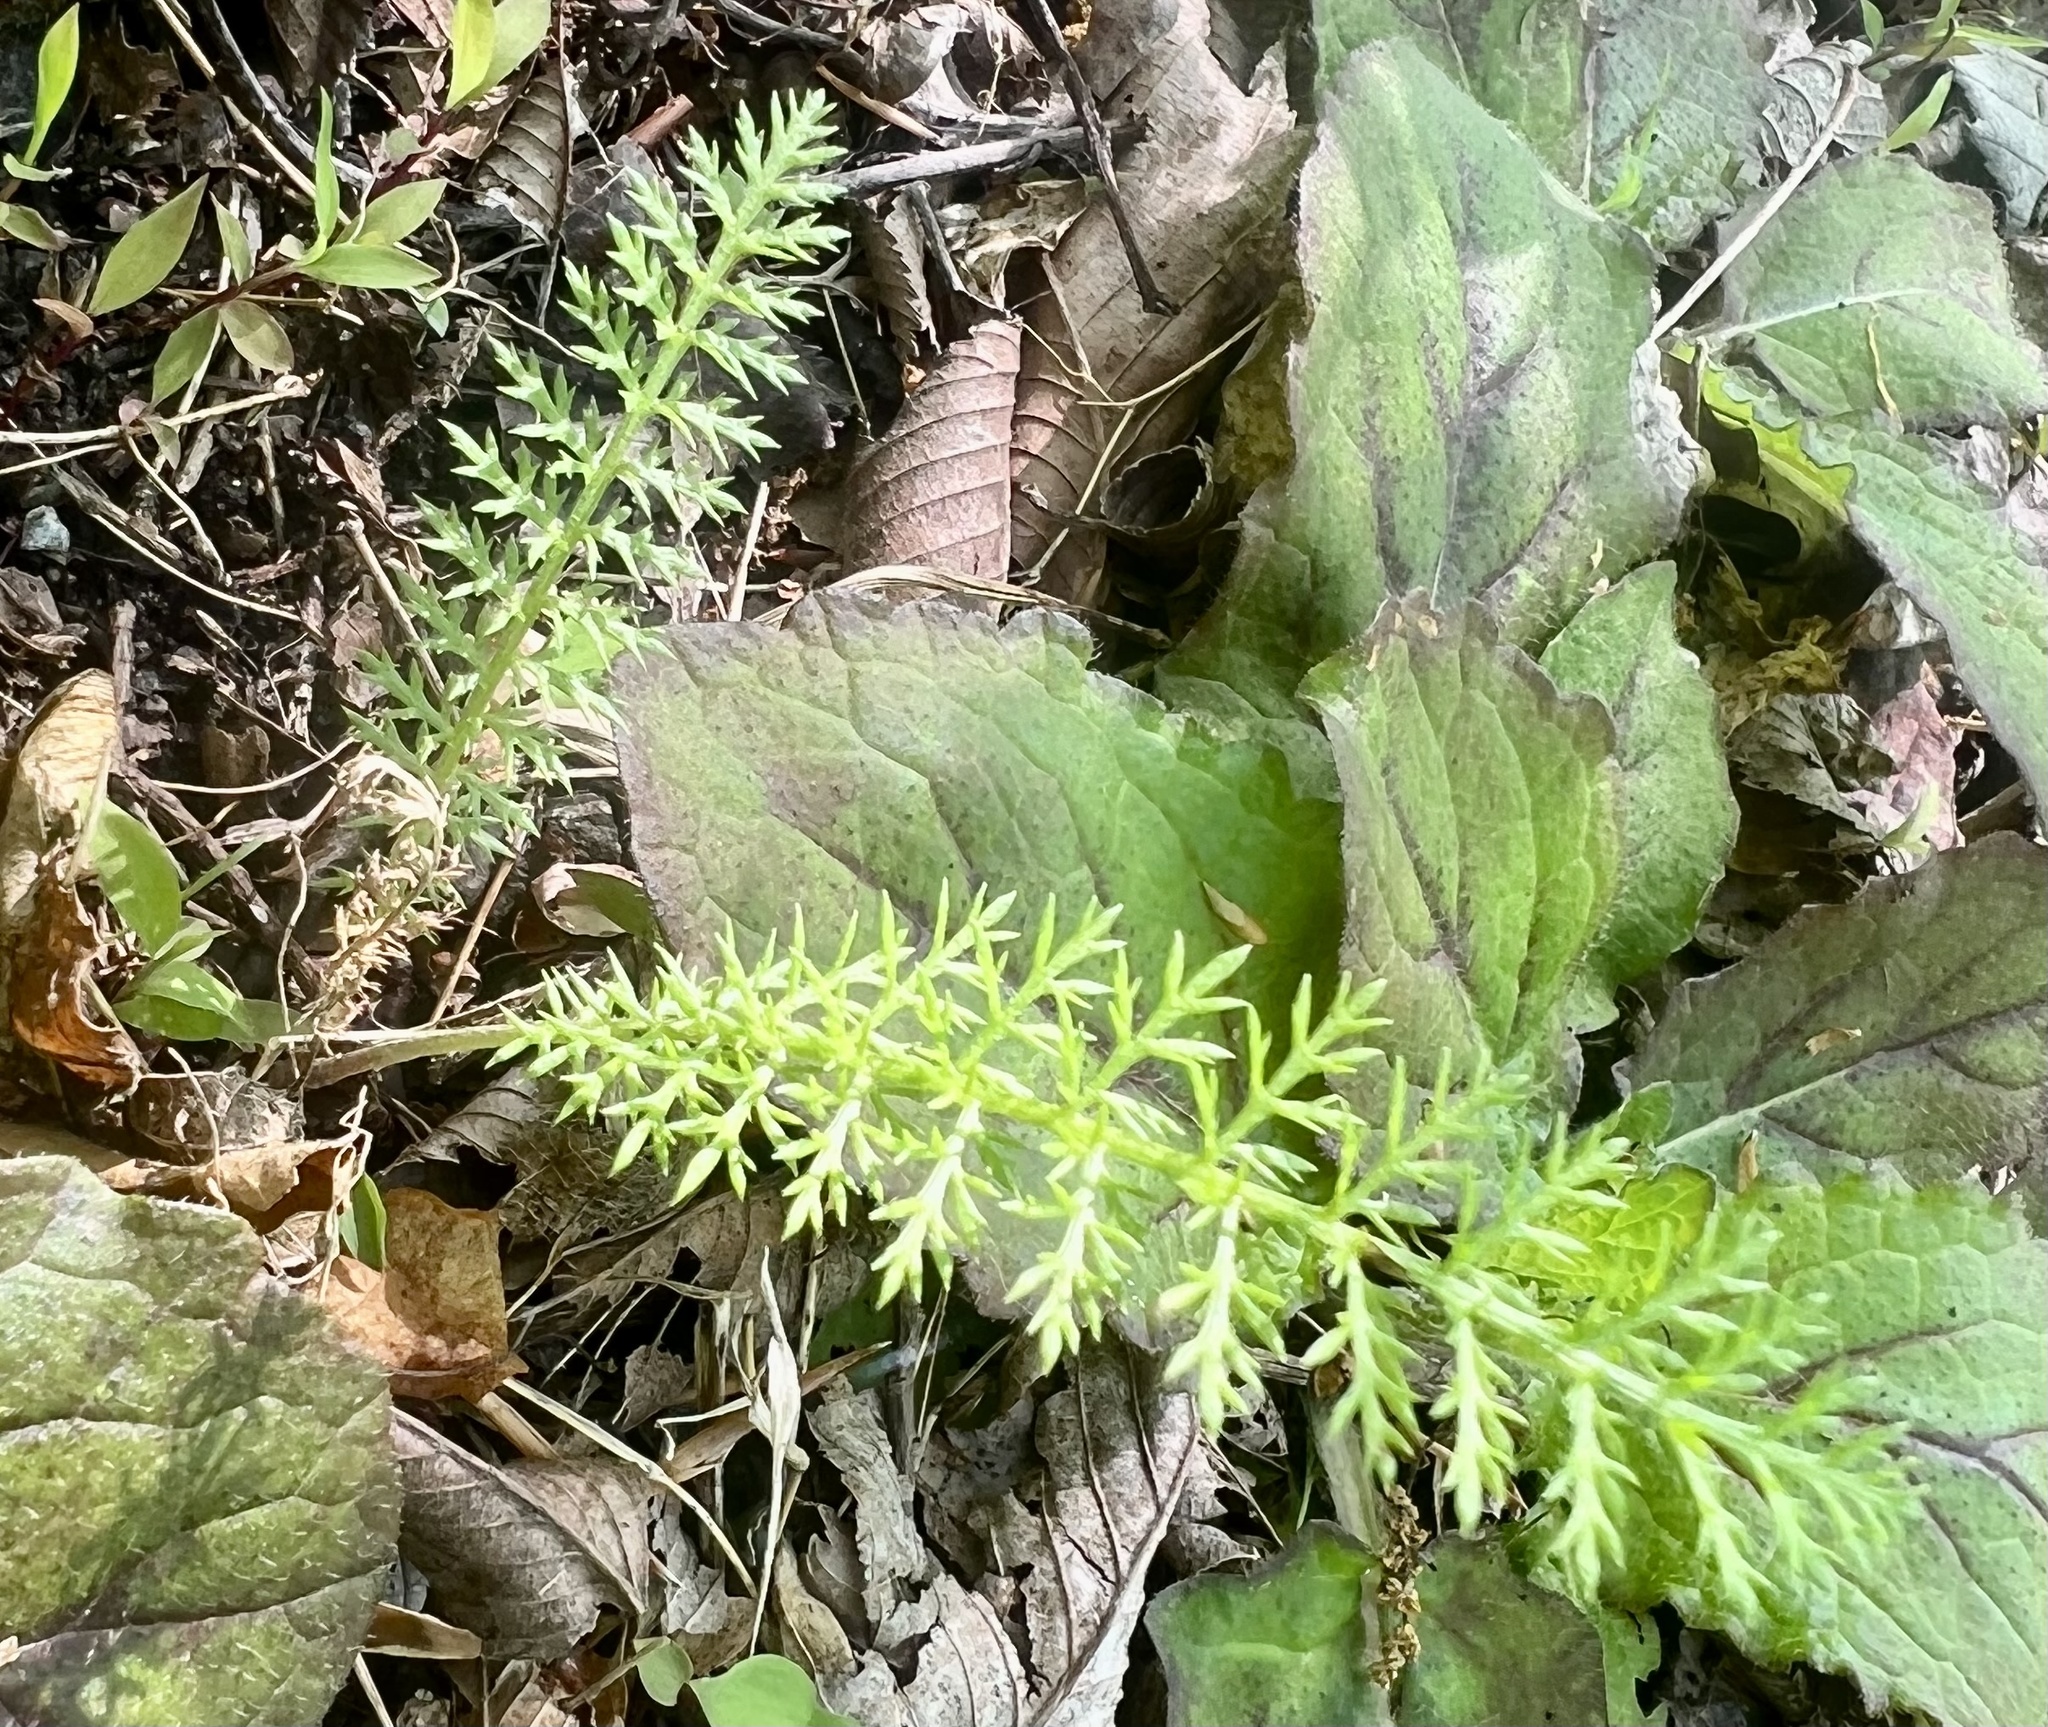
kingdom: Plantae
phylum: Tracheophyta
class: Magnoliopsida
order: Asterales
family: Asteraceae
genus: Achillea
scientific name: Achillea millefolium
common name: Yarrow
